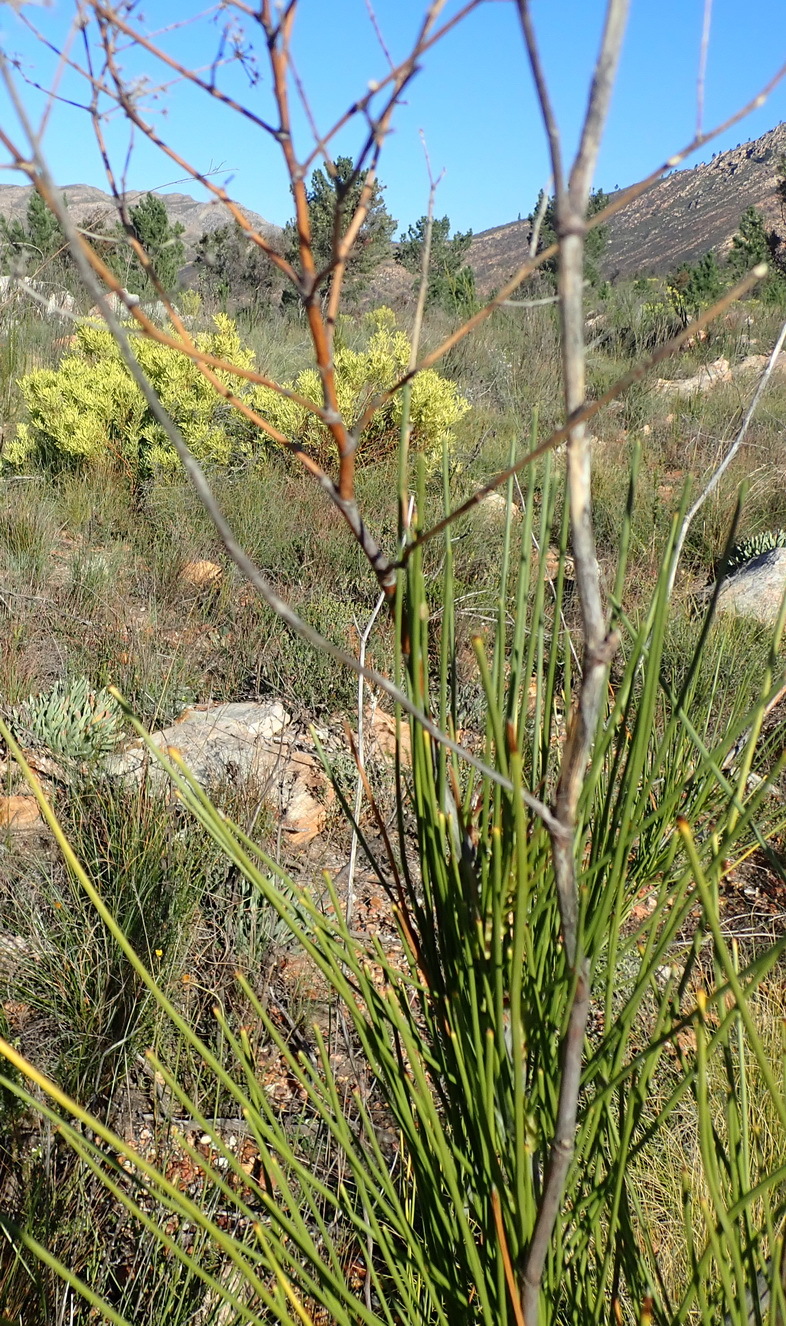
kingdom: Plantae
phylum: Tracheophyta
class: Magnoliopsida
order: Apiales
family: Apiaceae
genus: Anginon
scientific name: Anginon difforme
